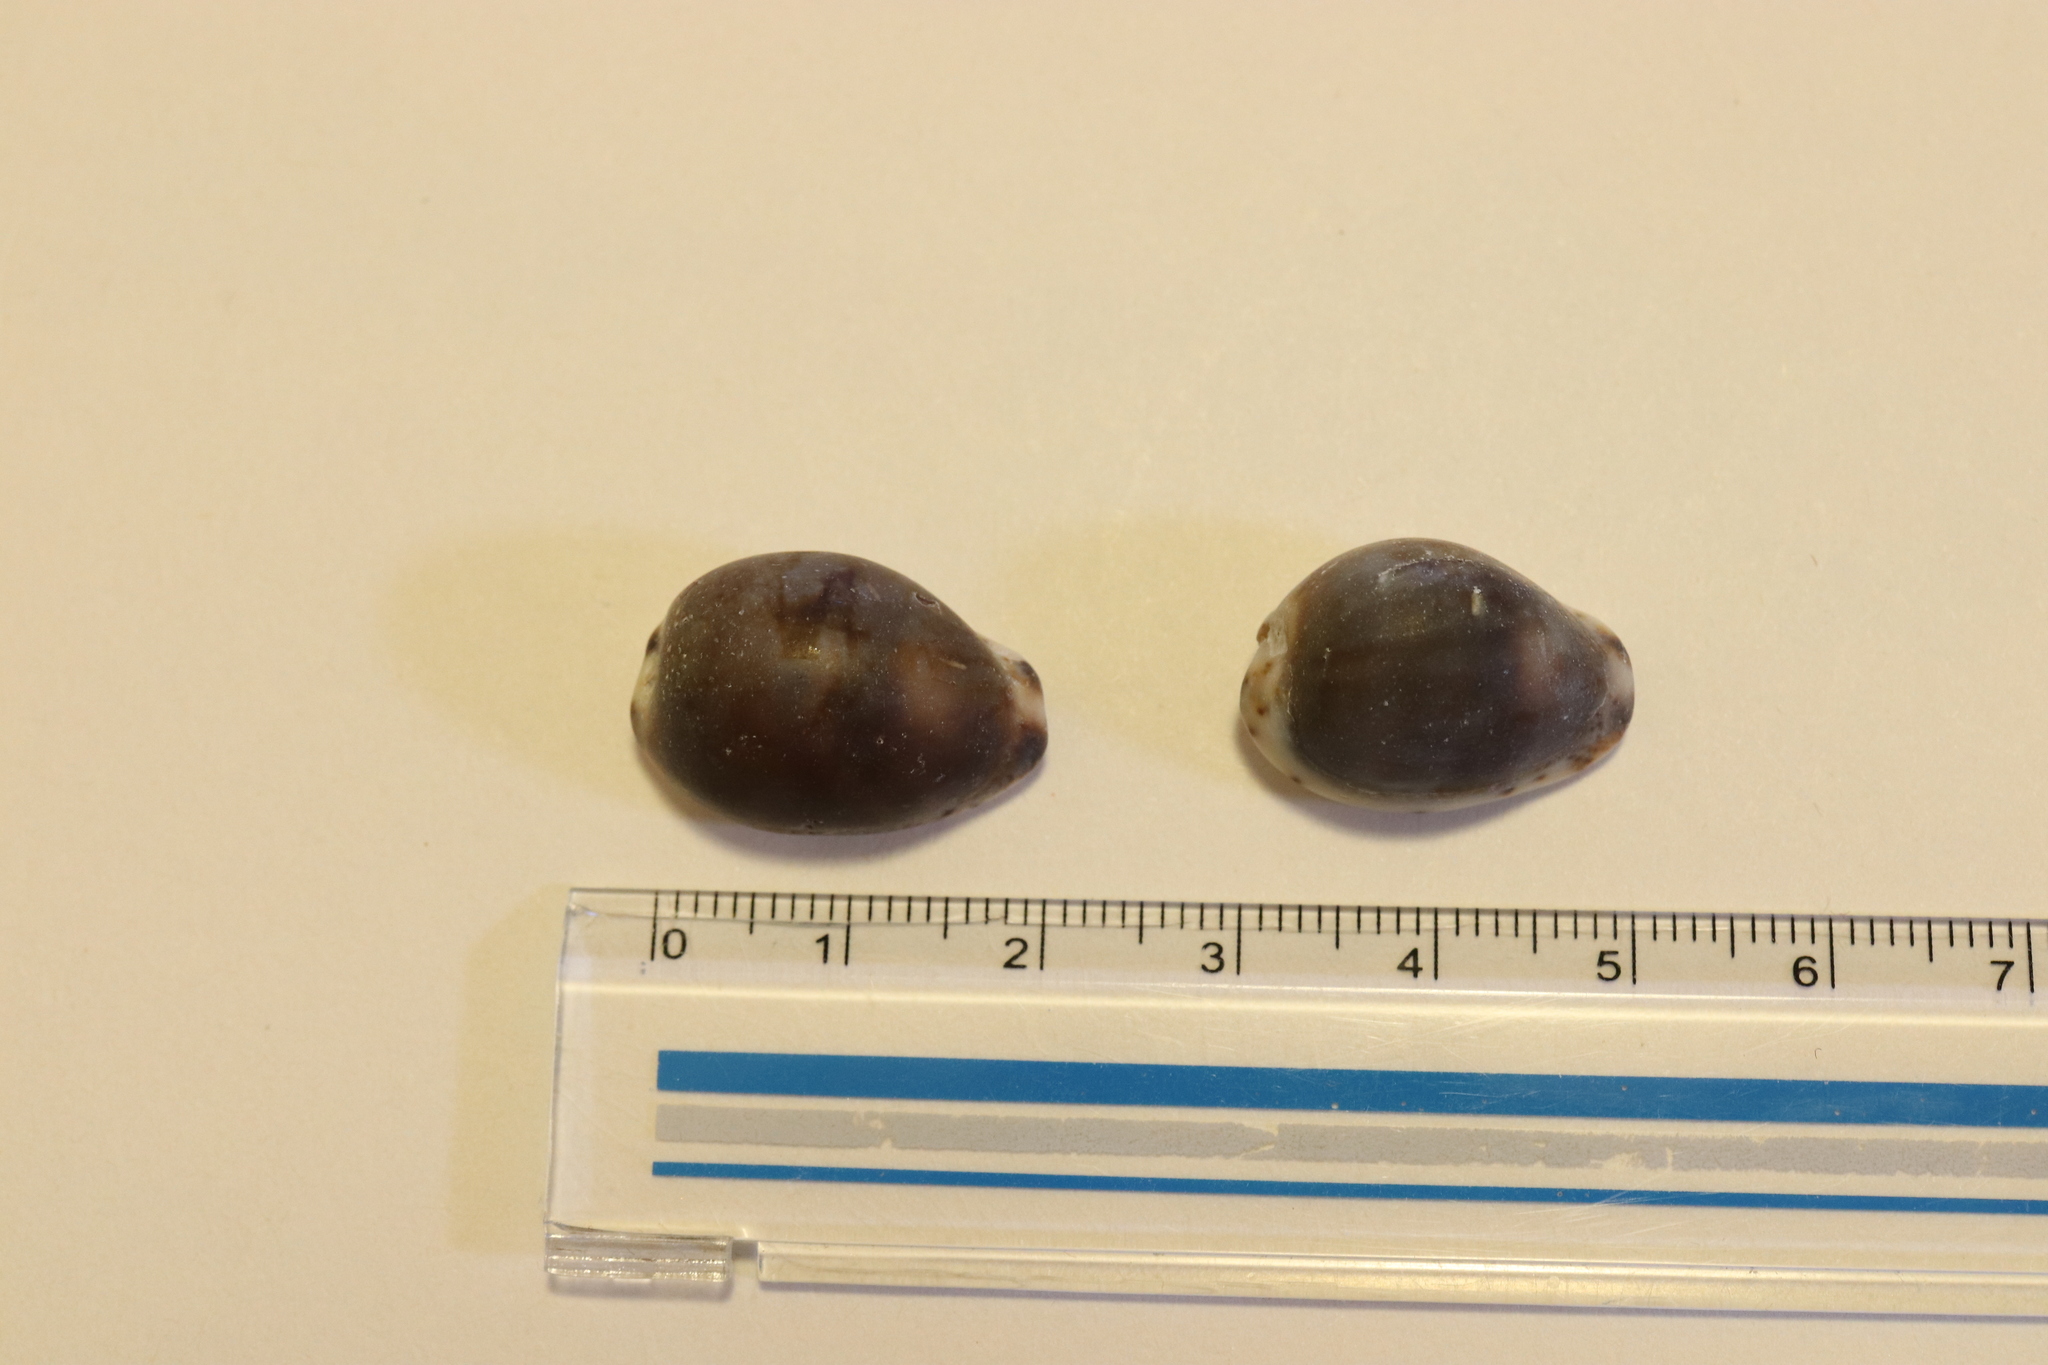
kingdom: Animalia
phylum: Mollusca
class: Gastropoda
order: Littorinimorpha
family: Cypraeidae
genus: Purpuradusta
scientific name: Purpuradusta gracilis
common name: Graceful cowrie
